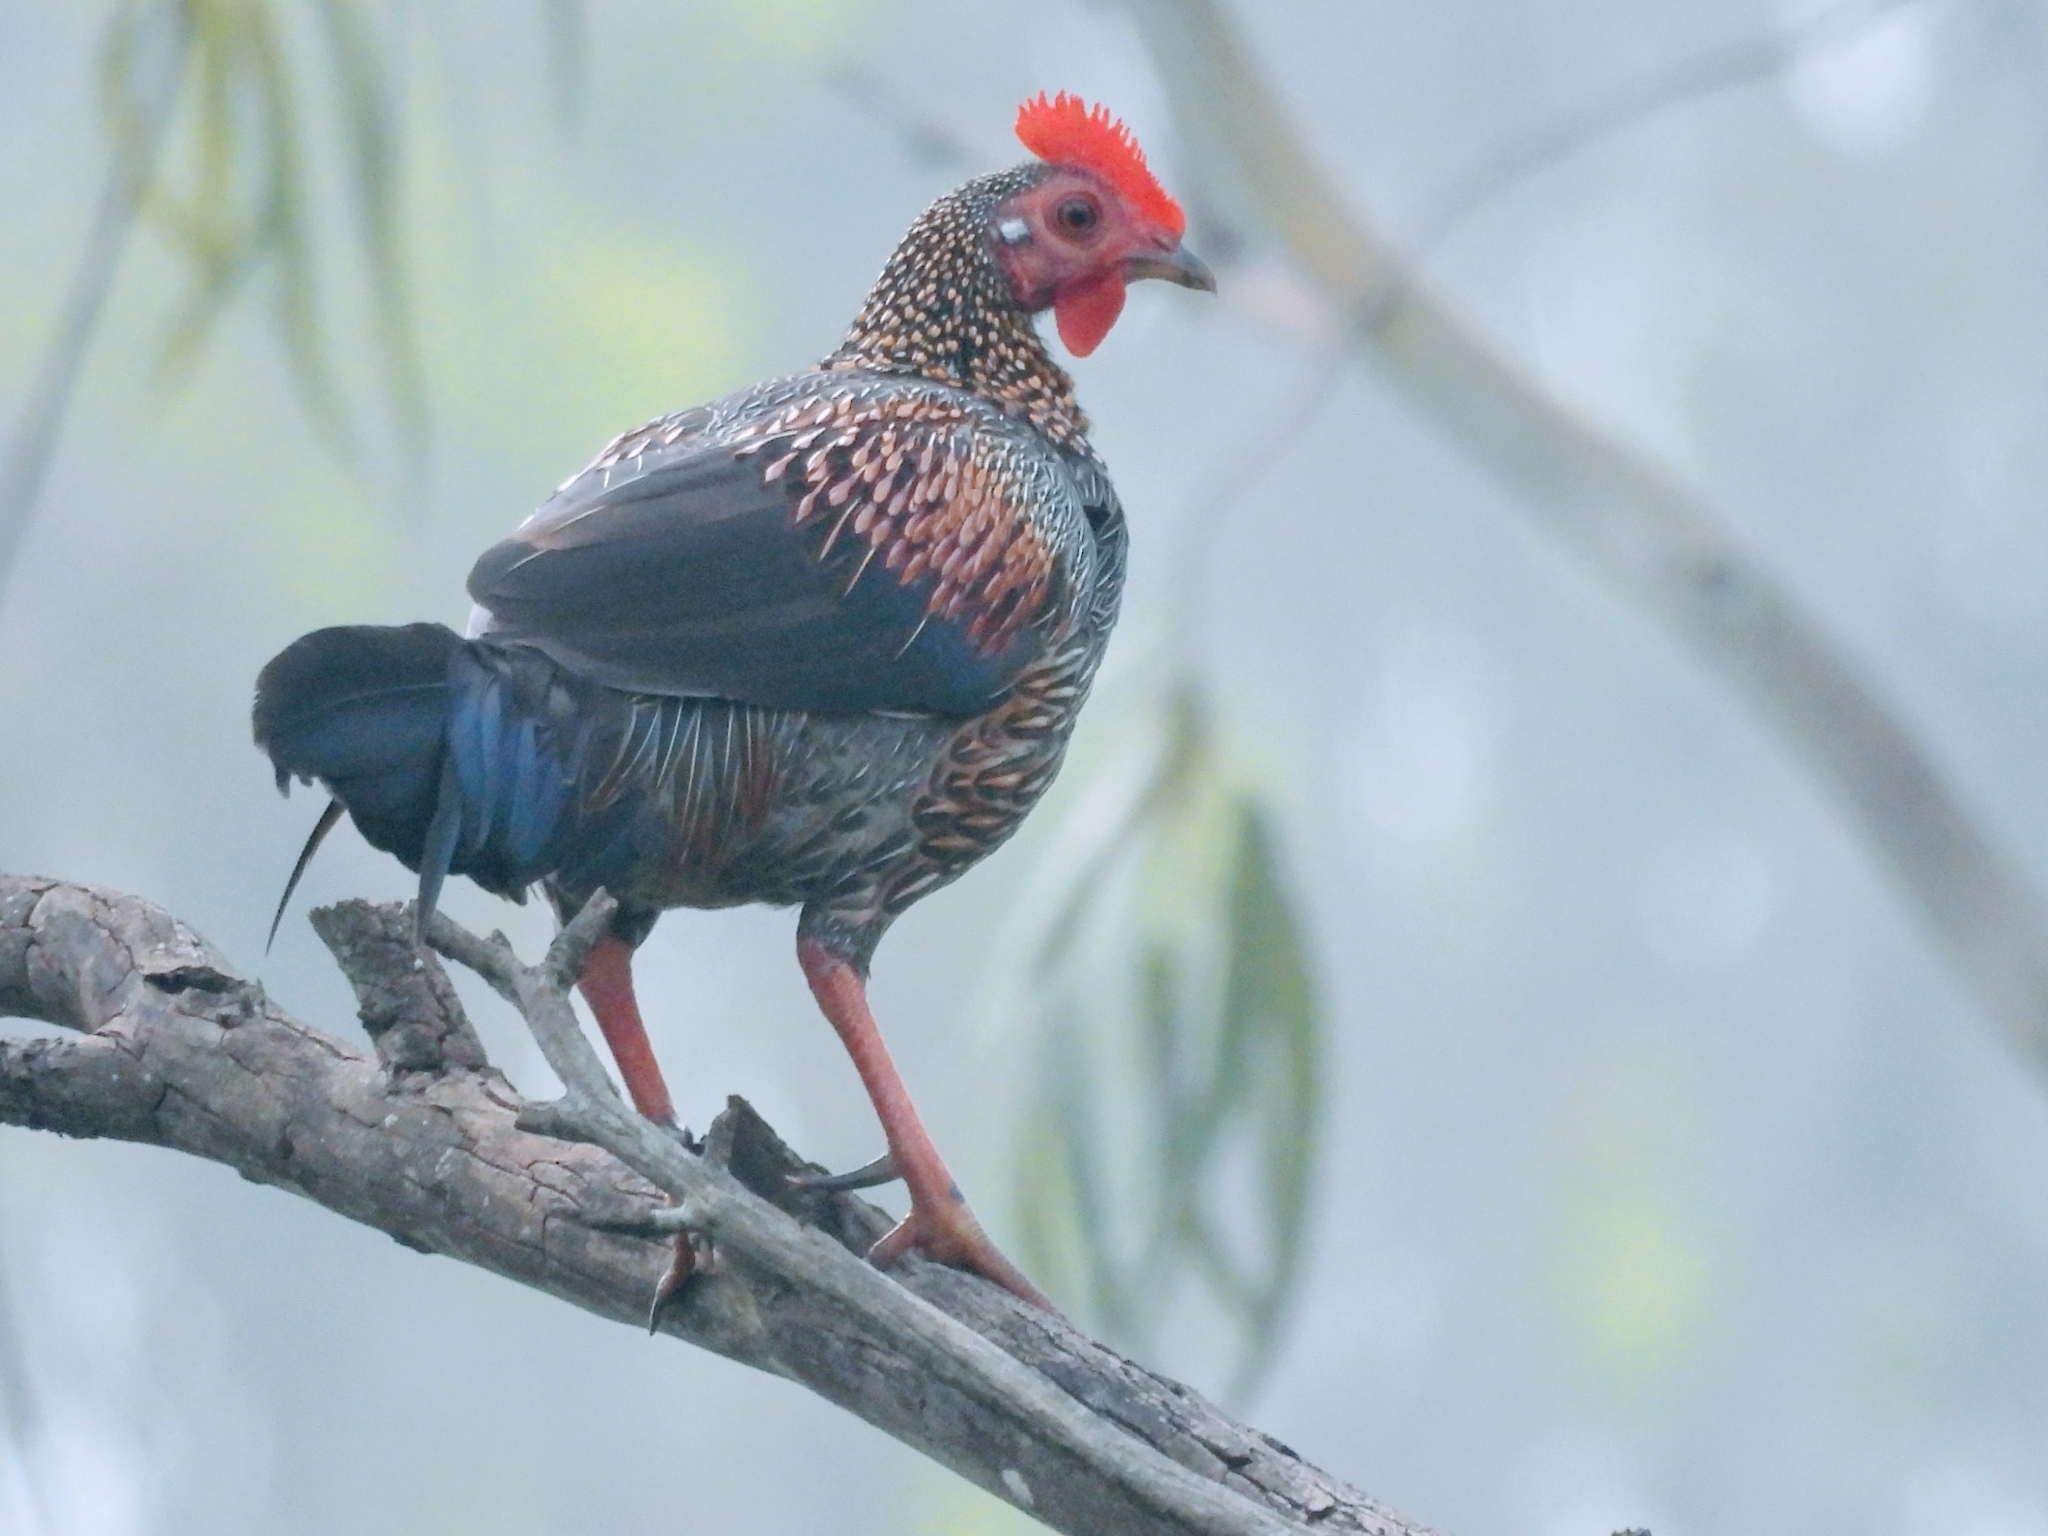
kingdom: Animalia
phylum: Chordata
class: Aves
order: Galliformes
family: Phasianidae
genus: Gallus
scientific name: Gallus sonneratii
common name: Grey junglefowl
